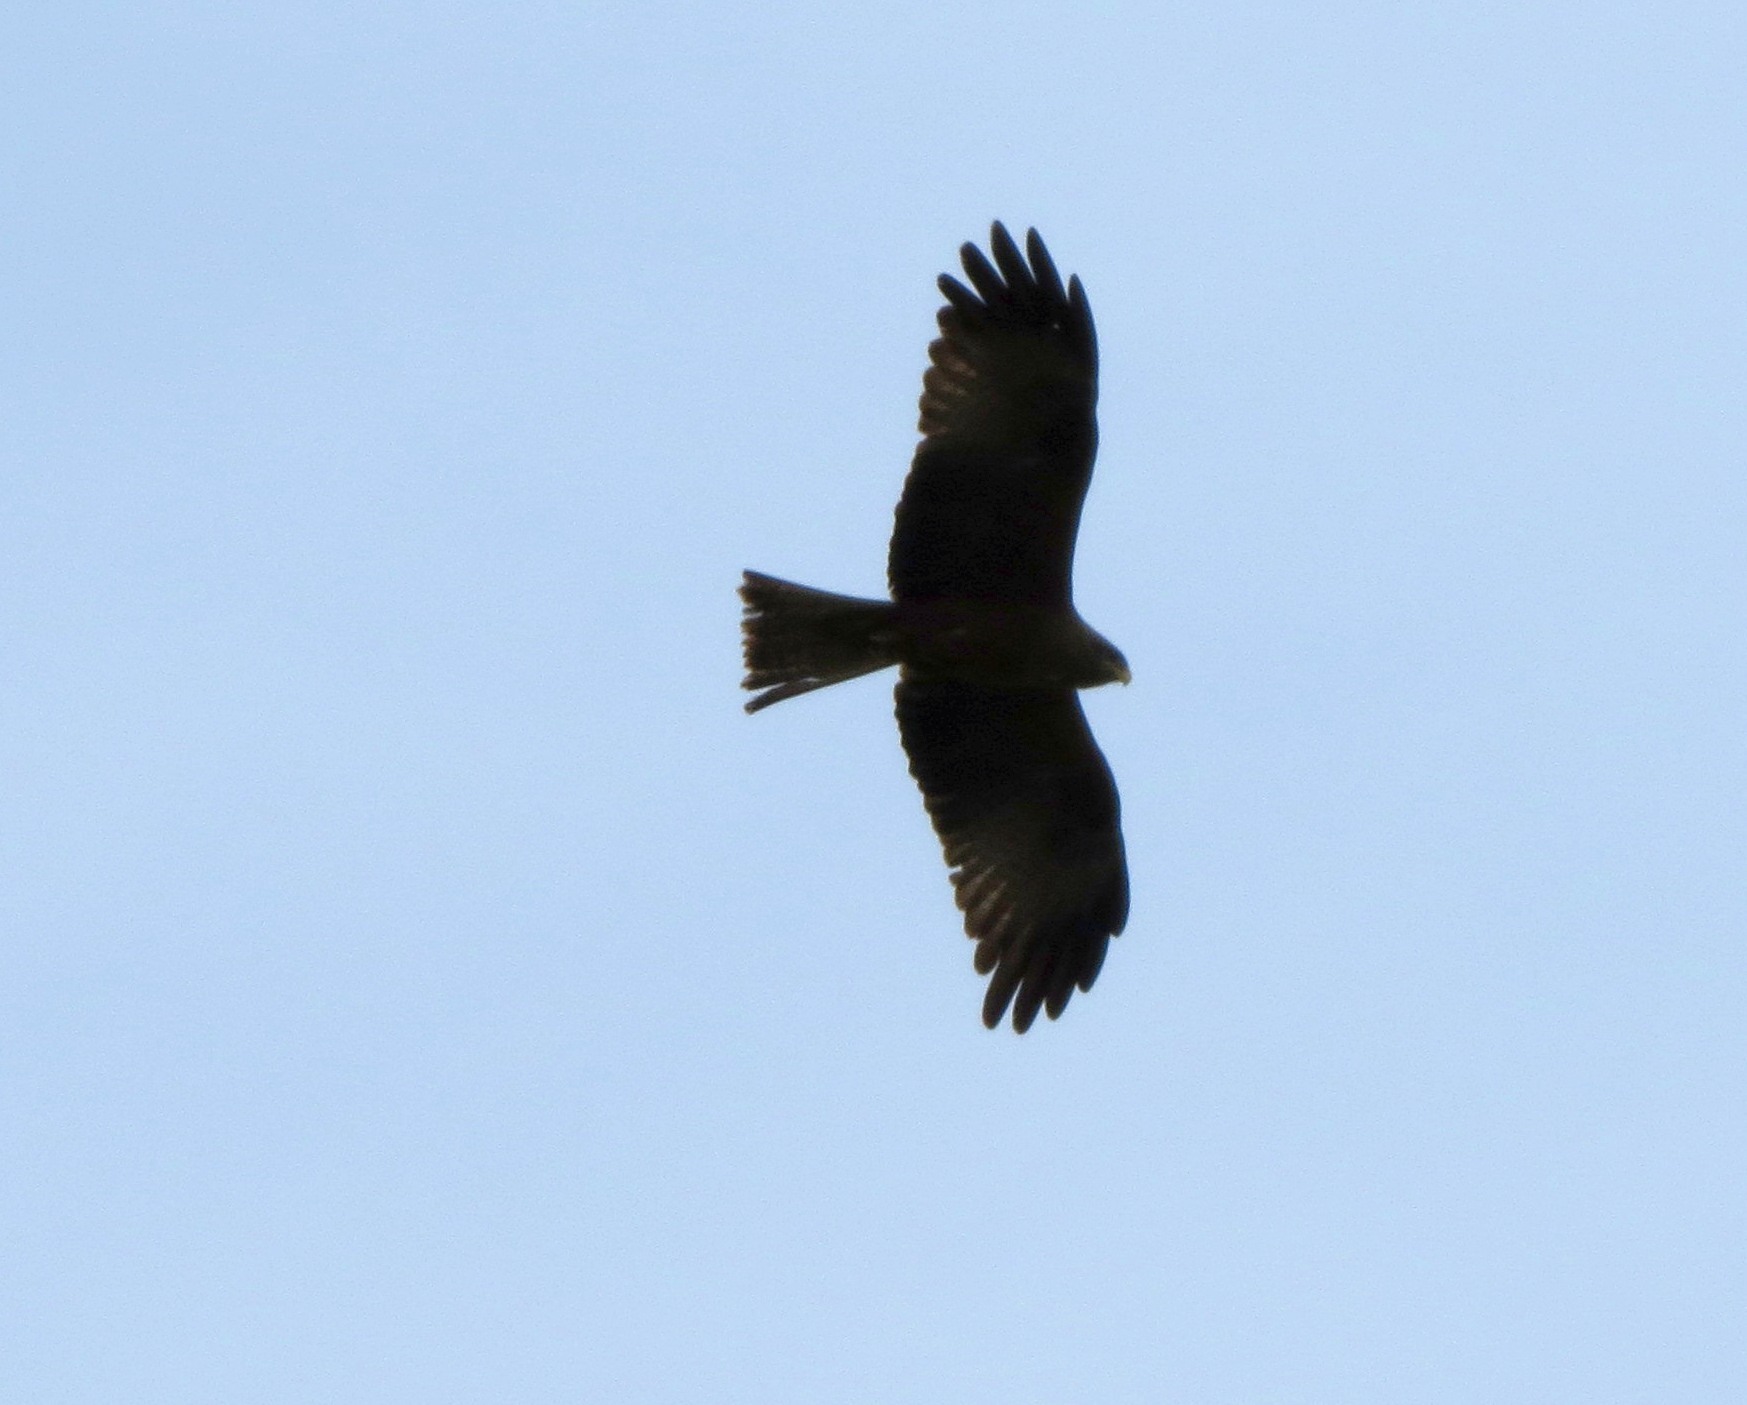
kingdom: Animalia
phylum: Chordata
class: Aves
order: Accipitriformes
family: Accipitridae
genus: Milvus
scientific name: Milvus migrans
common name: Black kite
